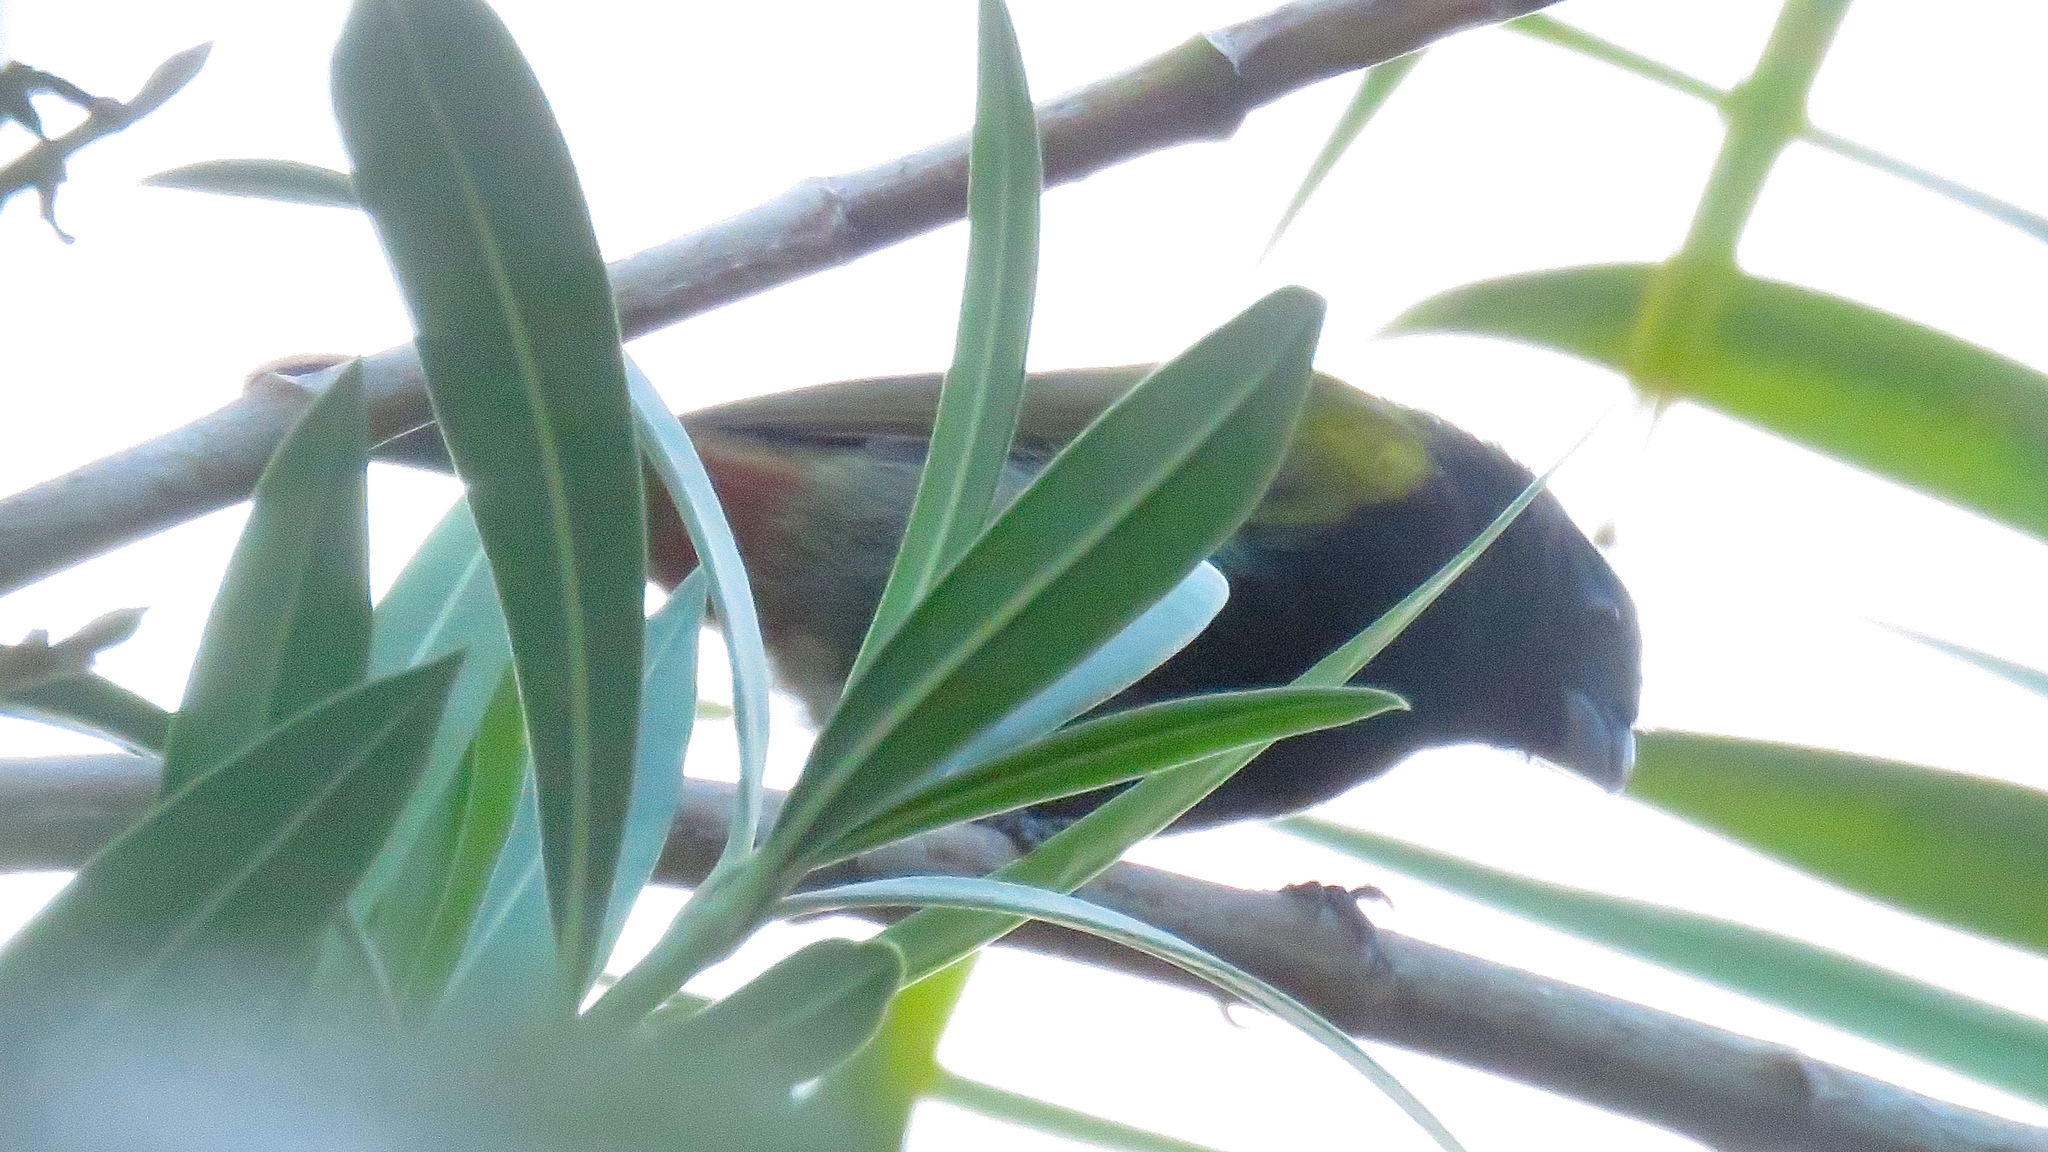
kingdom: Animalia
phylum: Chordata
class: Aves
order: Passeriformes
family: Thraupidae
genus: Loxipasser
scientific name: Loxipasser anoxanthus
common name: Yellow-shouldered grassquit
